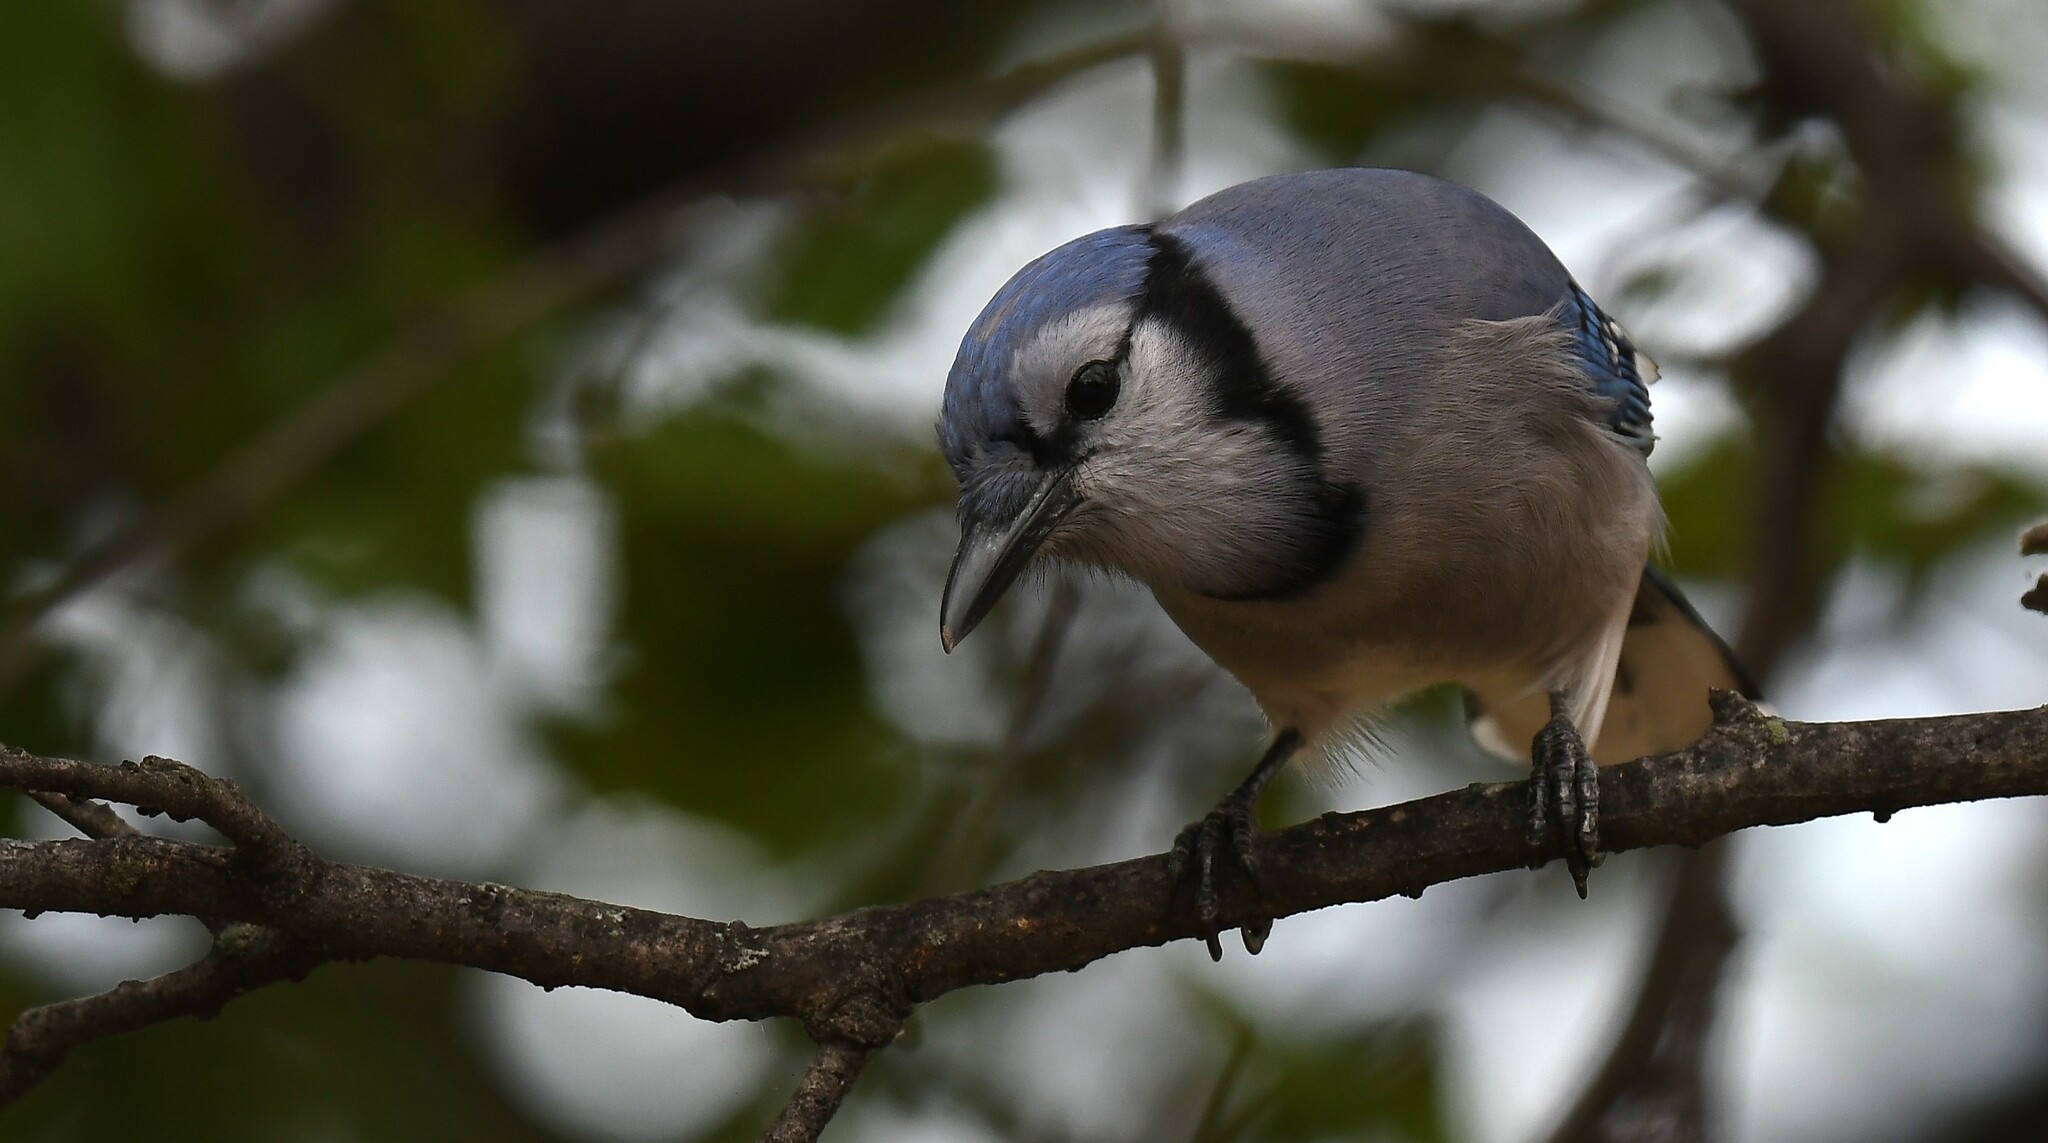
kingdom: Animalia
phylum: Chordata
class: Aves
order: Passeriformes
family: Corvidae
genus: Cyanocitta
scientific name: Cyanocitta cristata
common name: Blue jay
